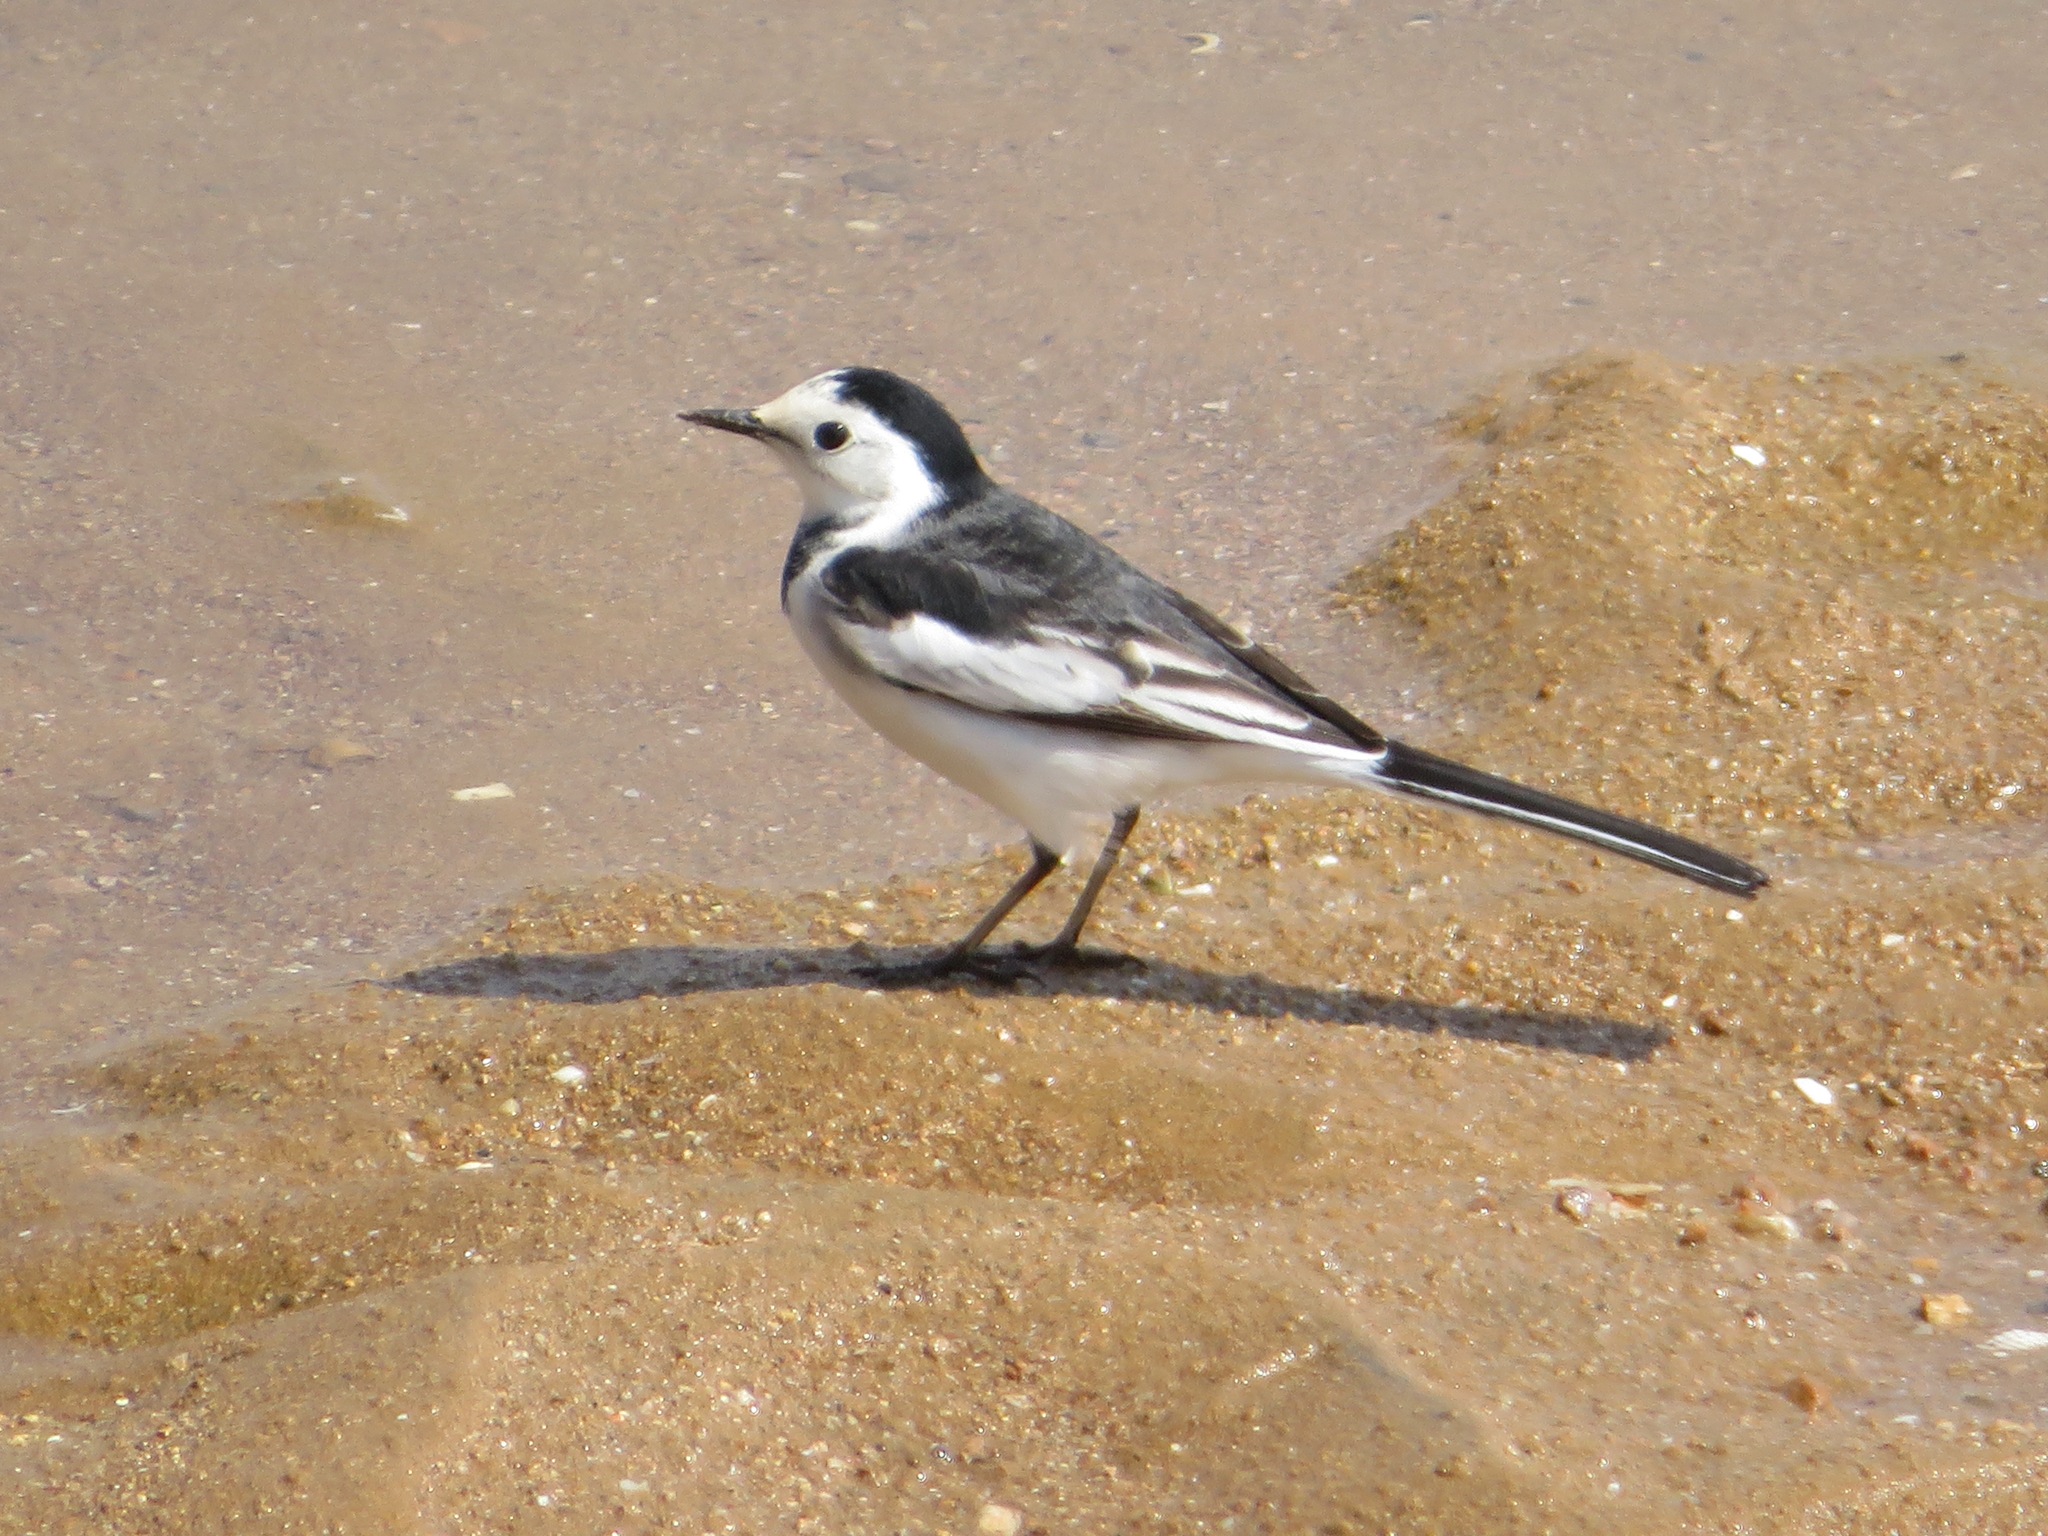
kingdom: Animalia
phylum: Chordata
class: Aves
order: Passeriformes
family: Motacillidae
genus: Motacilla
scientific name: Motacilla alba
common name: White wagtail
